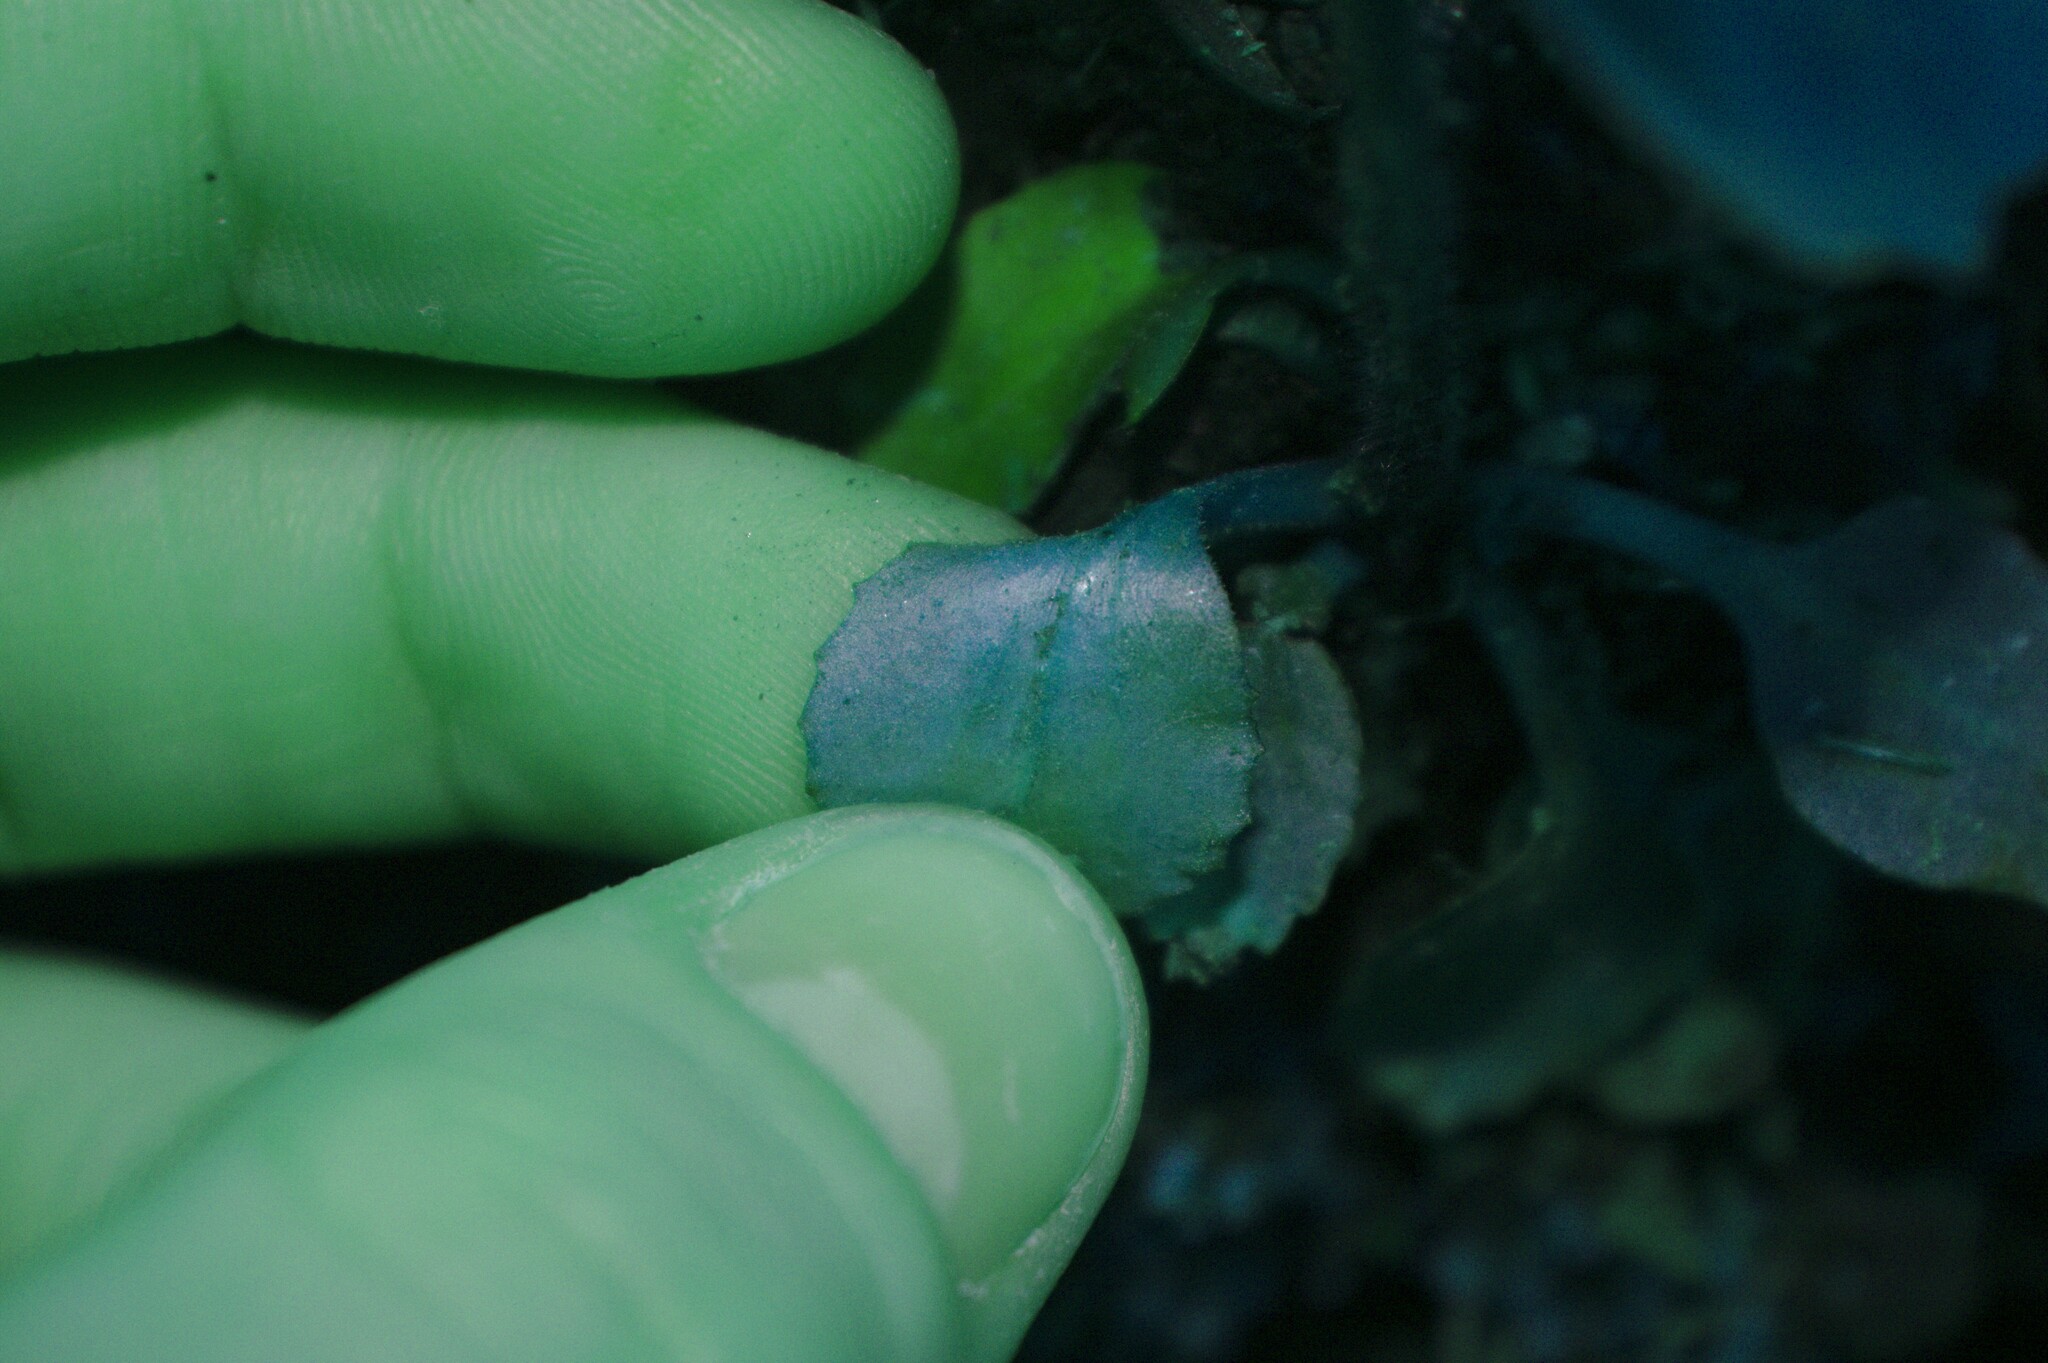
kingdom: Plantae
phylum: Tracheophyta
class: Magnoliopsida
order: Saxifragales
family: Saxifragaceae
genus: Micranthes
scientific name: Micranthes virginiensis
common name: Early saxifrage
